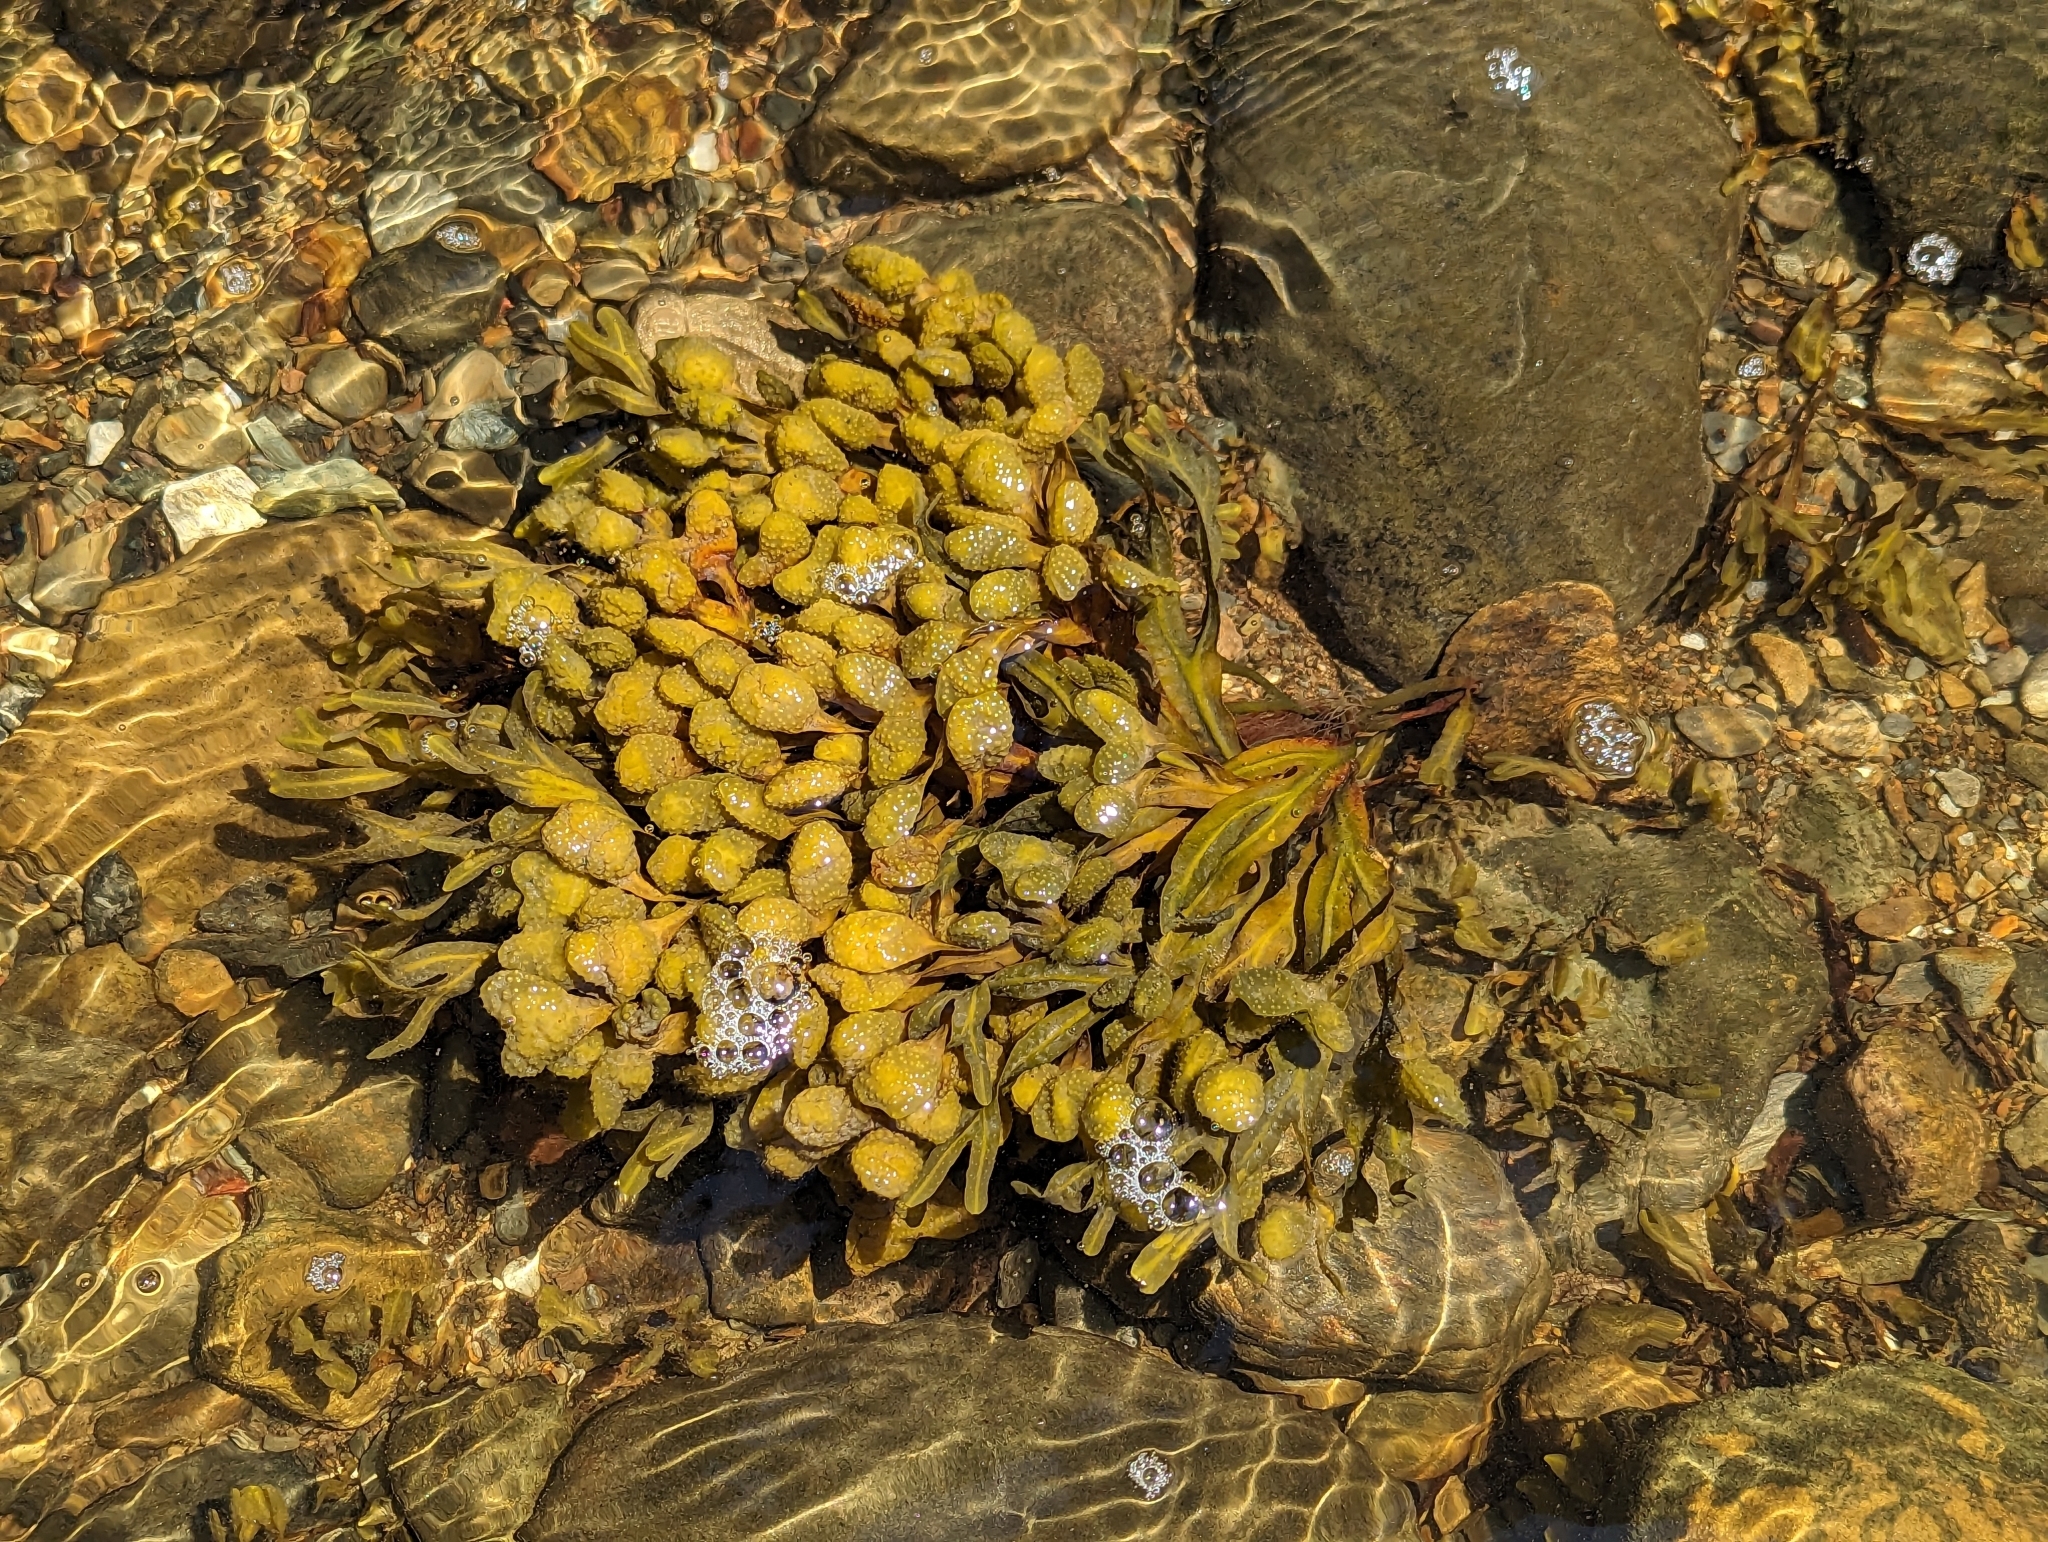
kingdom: Chromista
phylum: Ochrophyta
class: Phaeophyceae
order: Fucales
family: Fucaceae
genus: Fucus
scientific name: Fucus spiralis
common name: Spiral wrack
